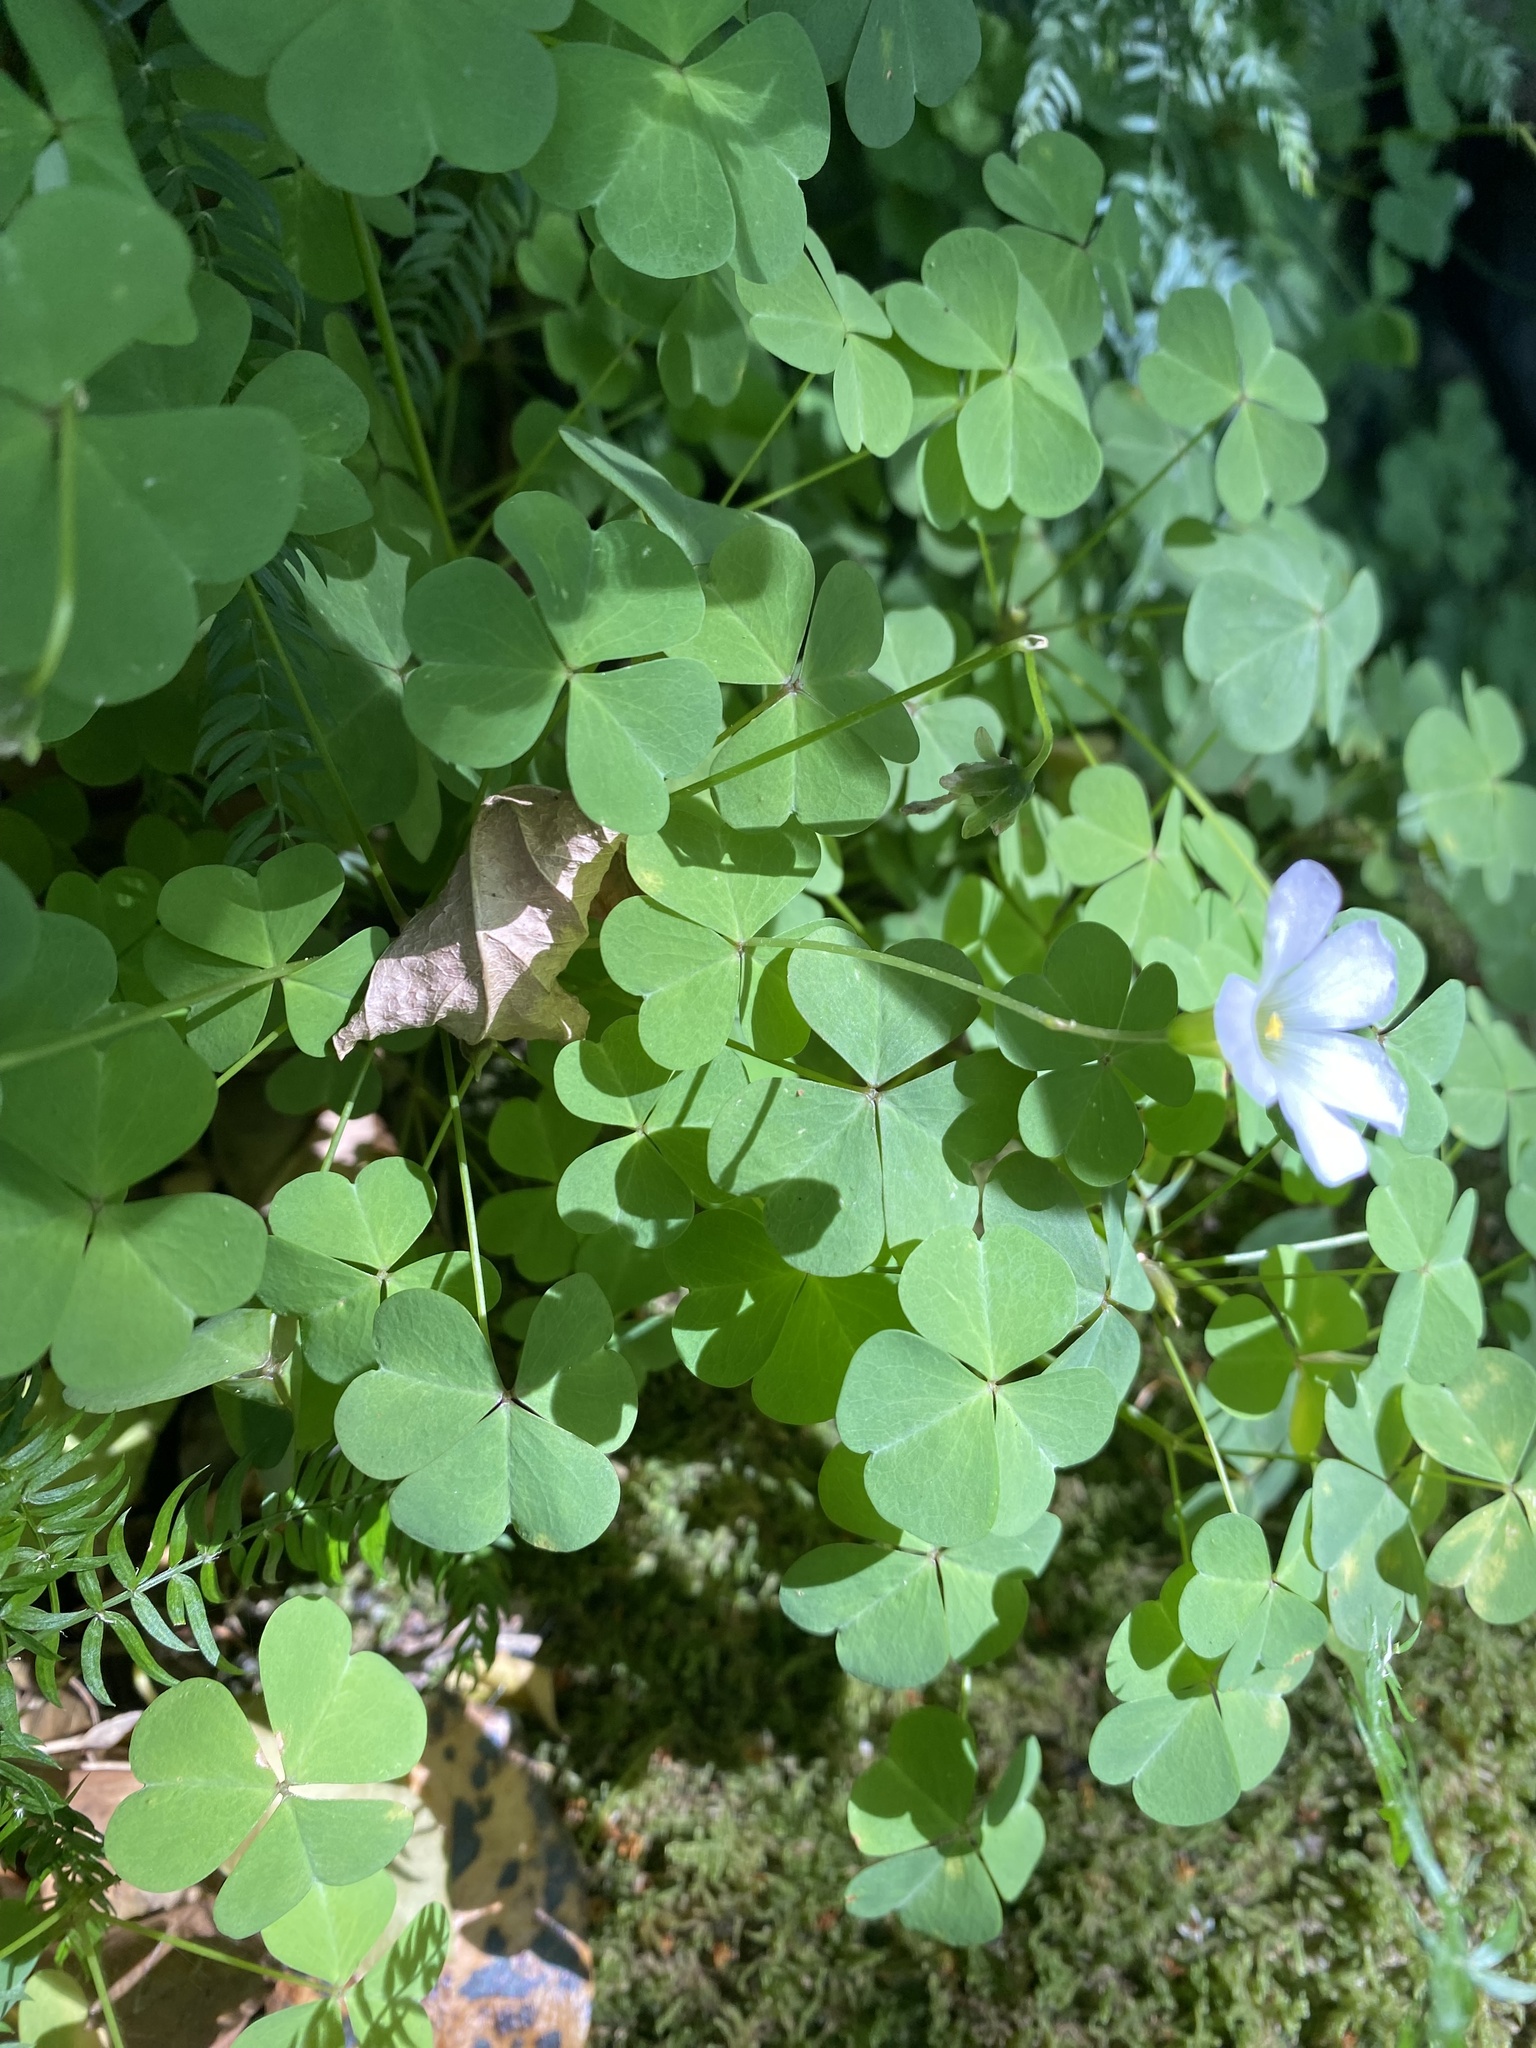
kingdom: Plantae
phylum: Tracheophyta
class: Magnoliopsida
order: Oxalidales
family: Oxalidaceae
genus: Oxalis
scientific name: Oxalis incarnata
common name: Pale pink-sorrel
